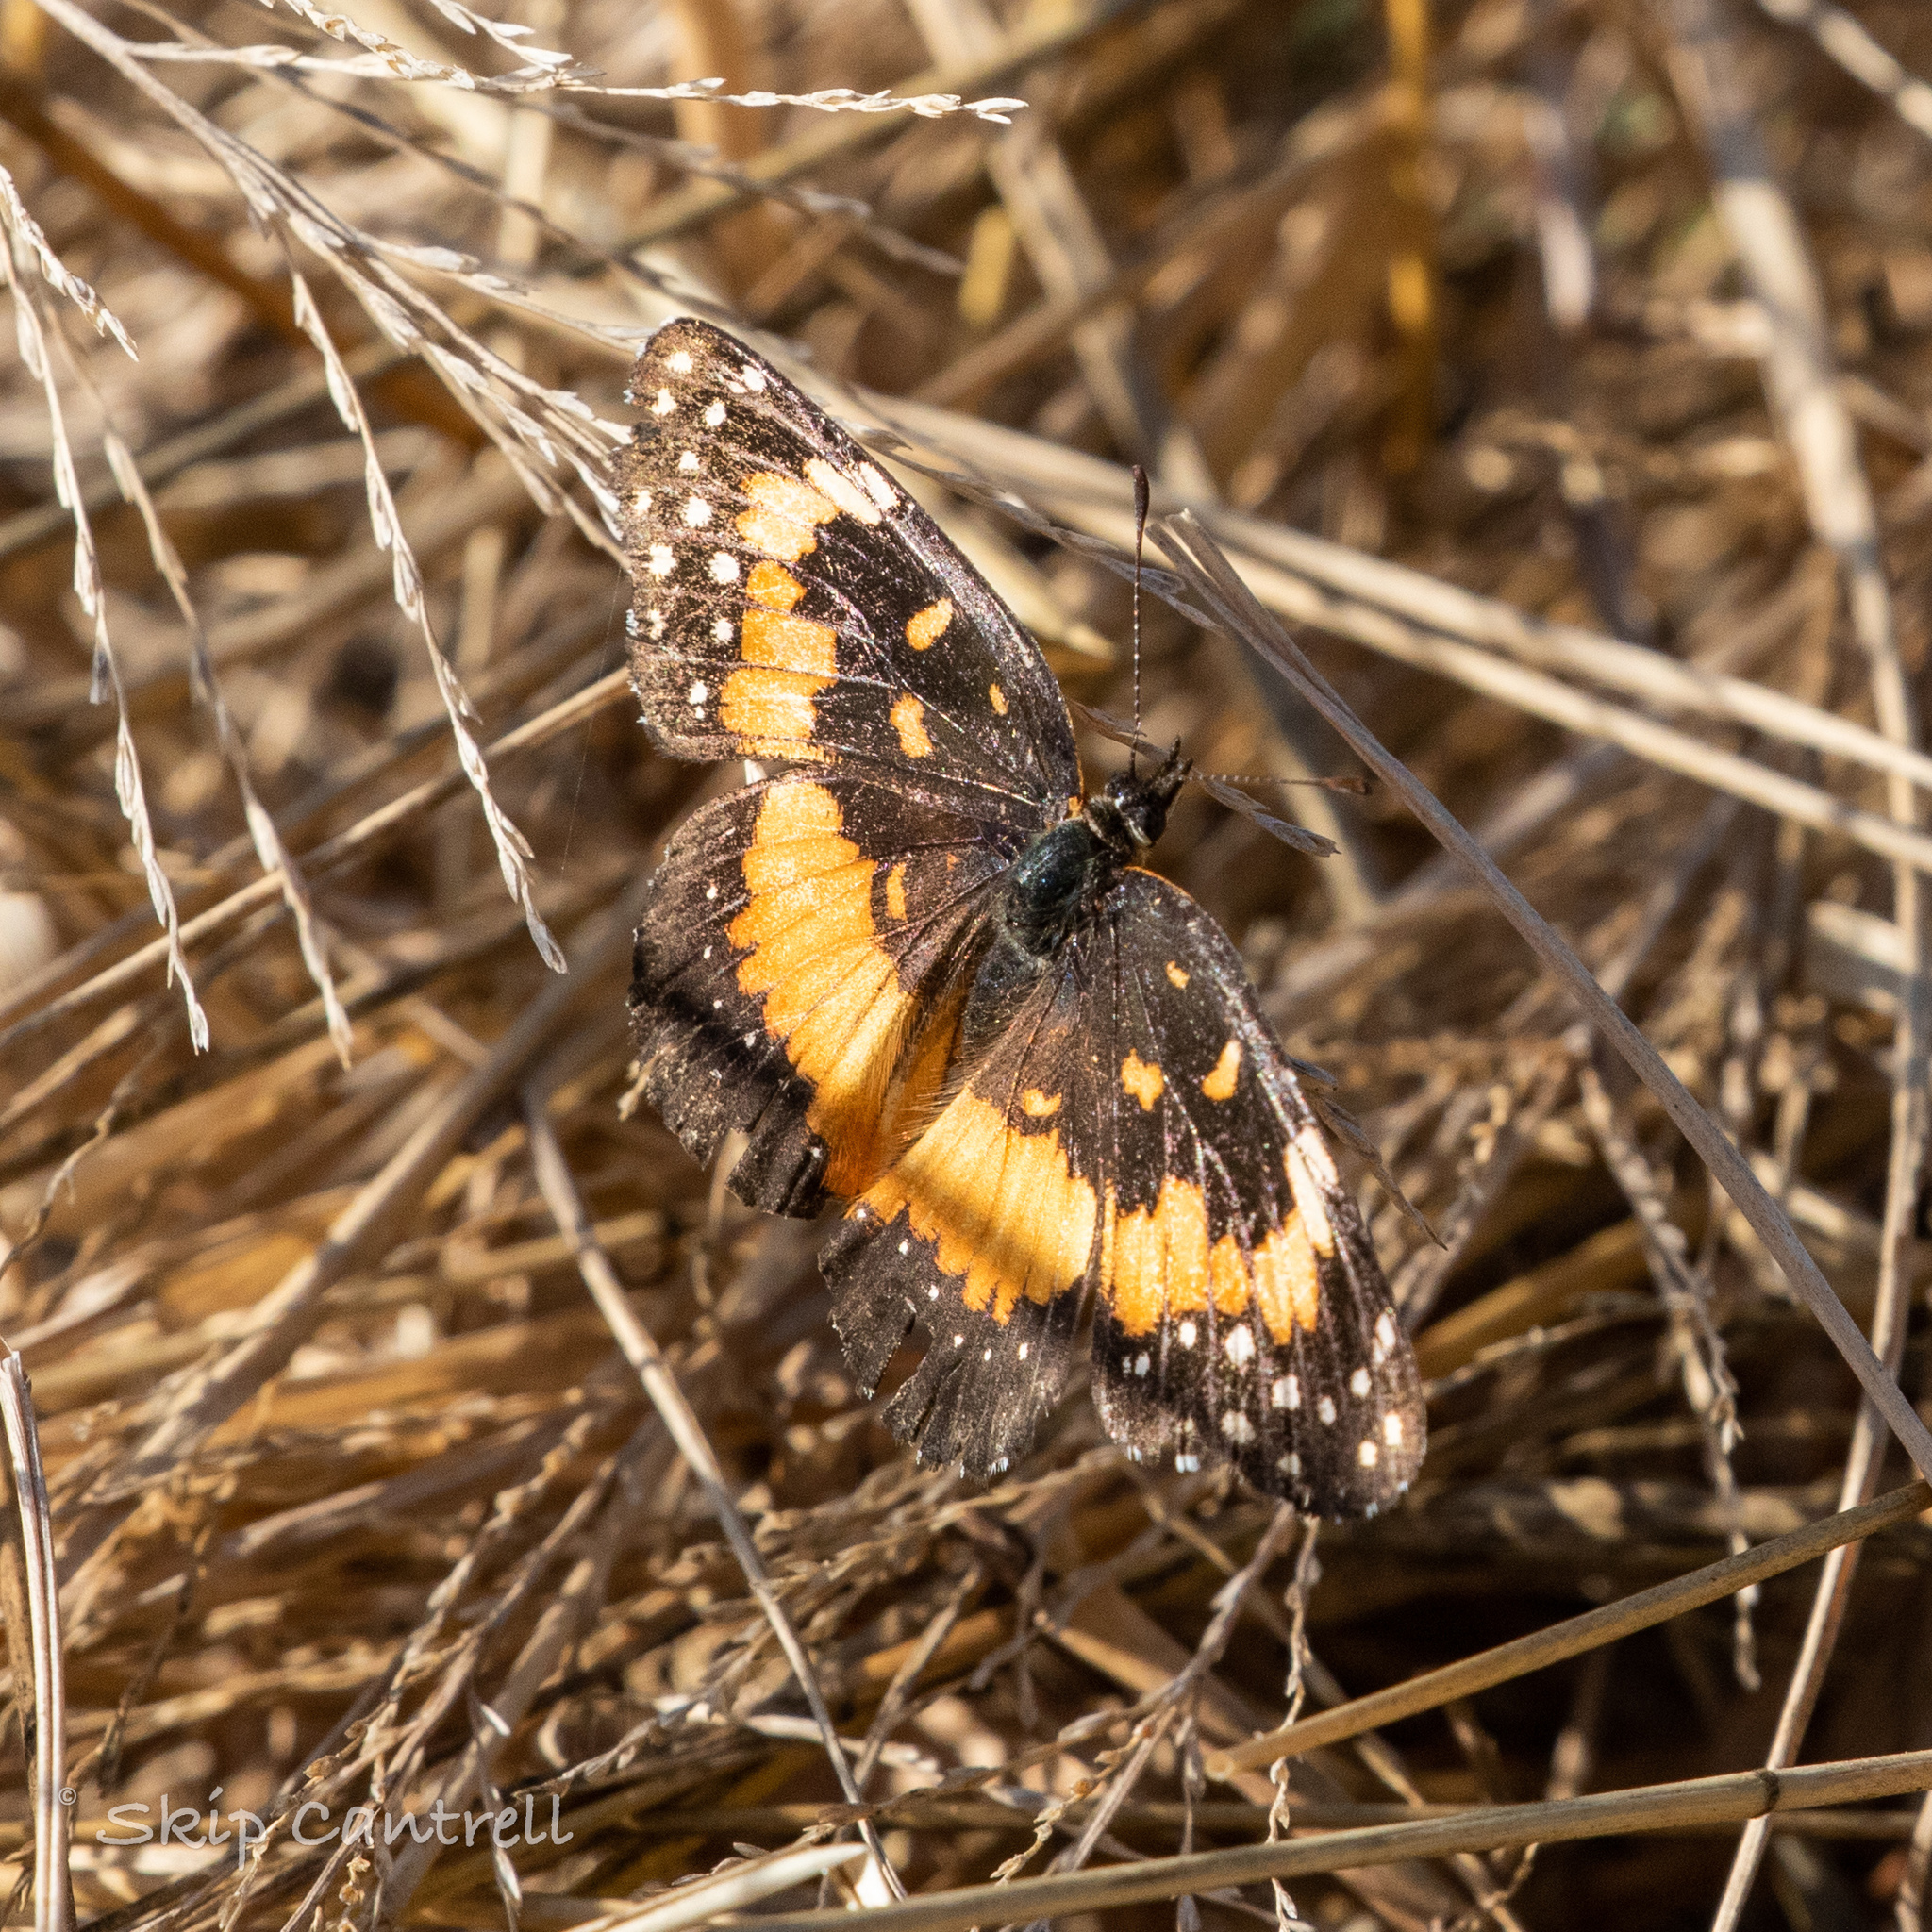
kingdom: Animalia
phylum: Arthropoda
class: Insecta
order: Lepidoptera
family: Nymphalidae
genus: Chlosyne
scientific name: Chlosyne lacinia
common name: Bordered patch
